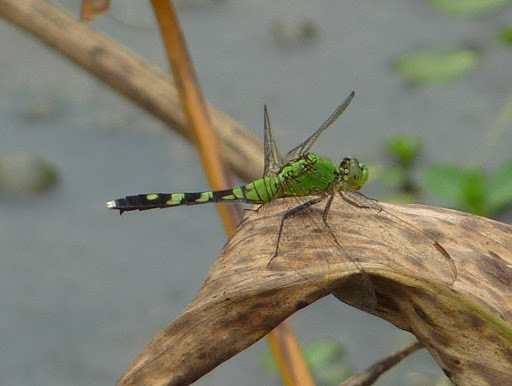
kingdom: Animalia
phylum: Arthropoda
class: Insecta
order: Odonata
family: Libellulidae
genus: Erythemis
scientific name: Erythemis simplicicollis
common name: Eastern pondhawk
